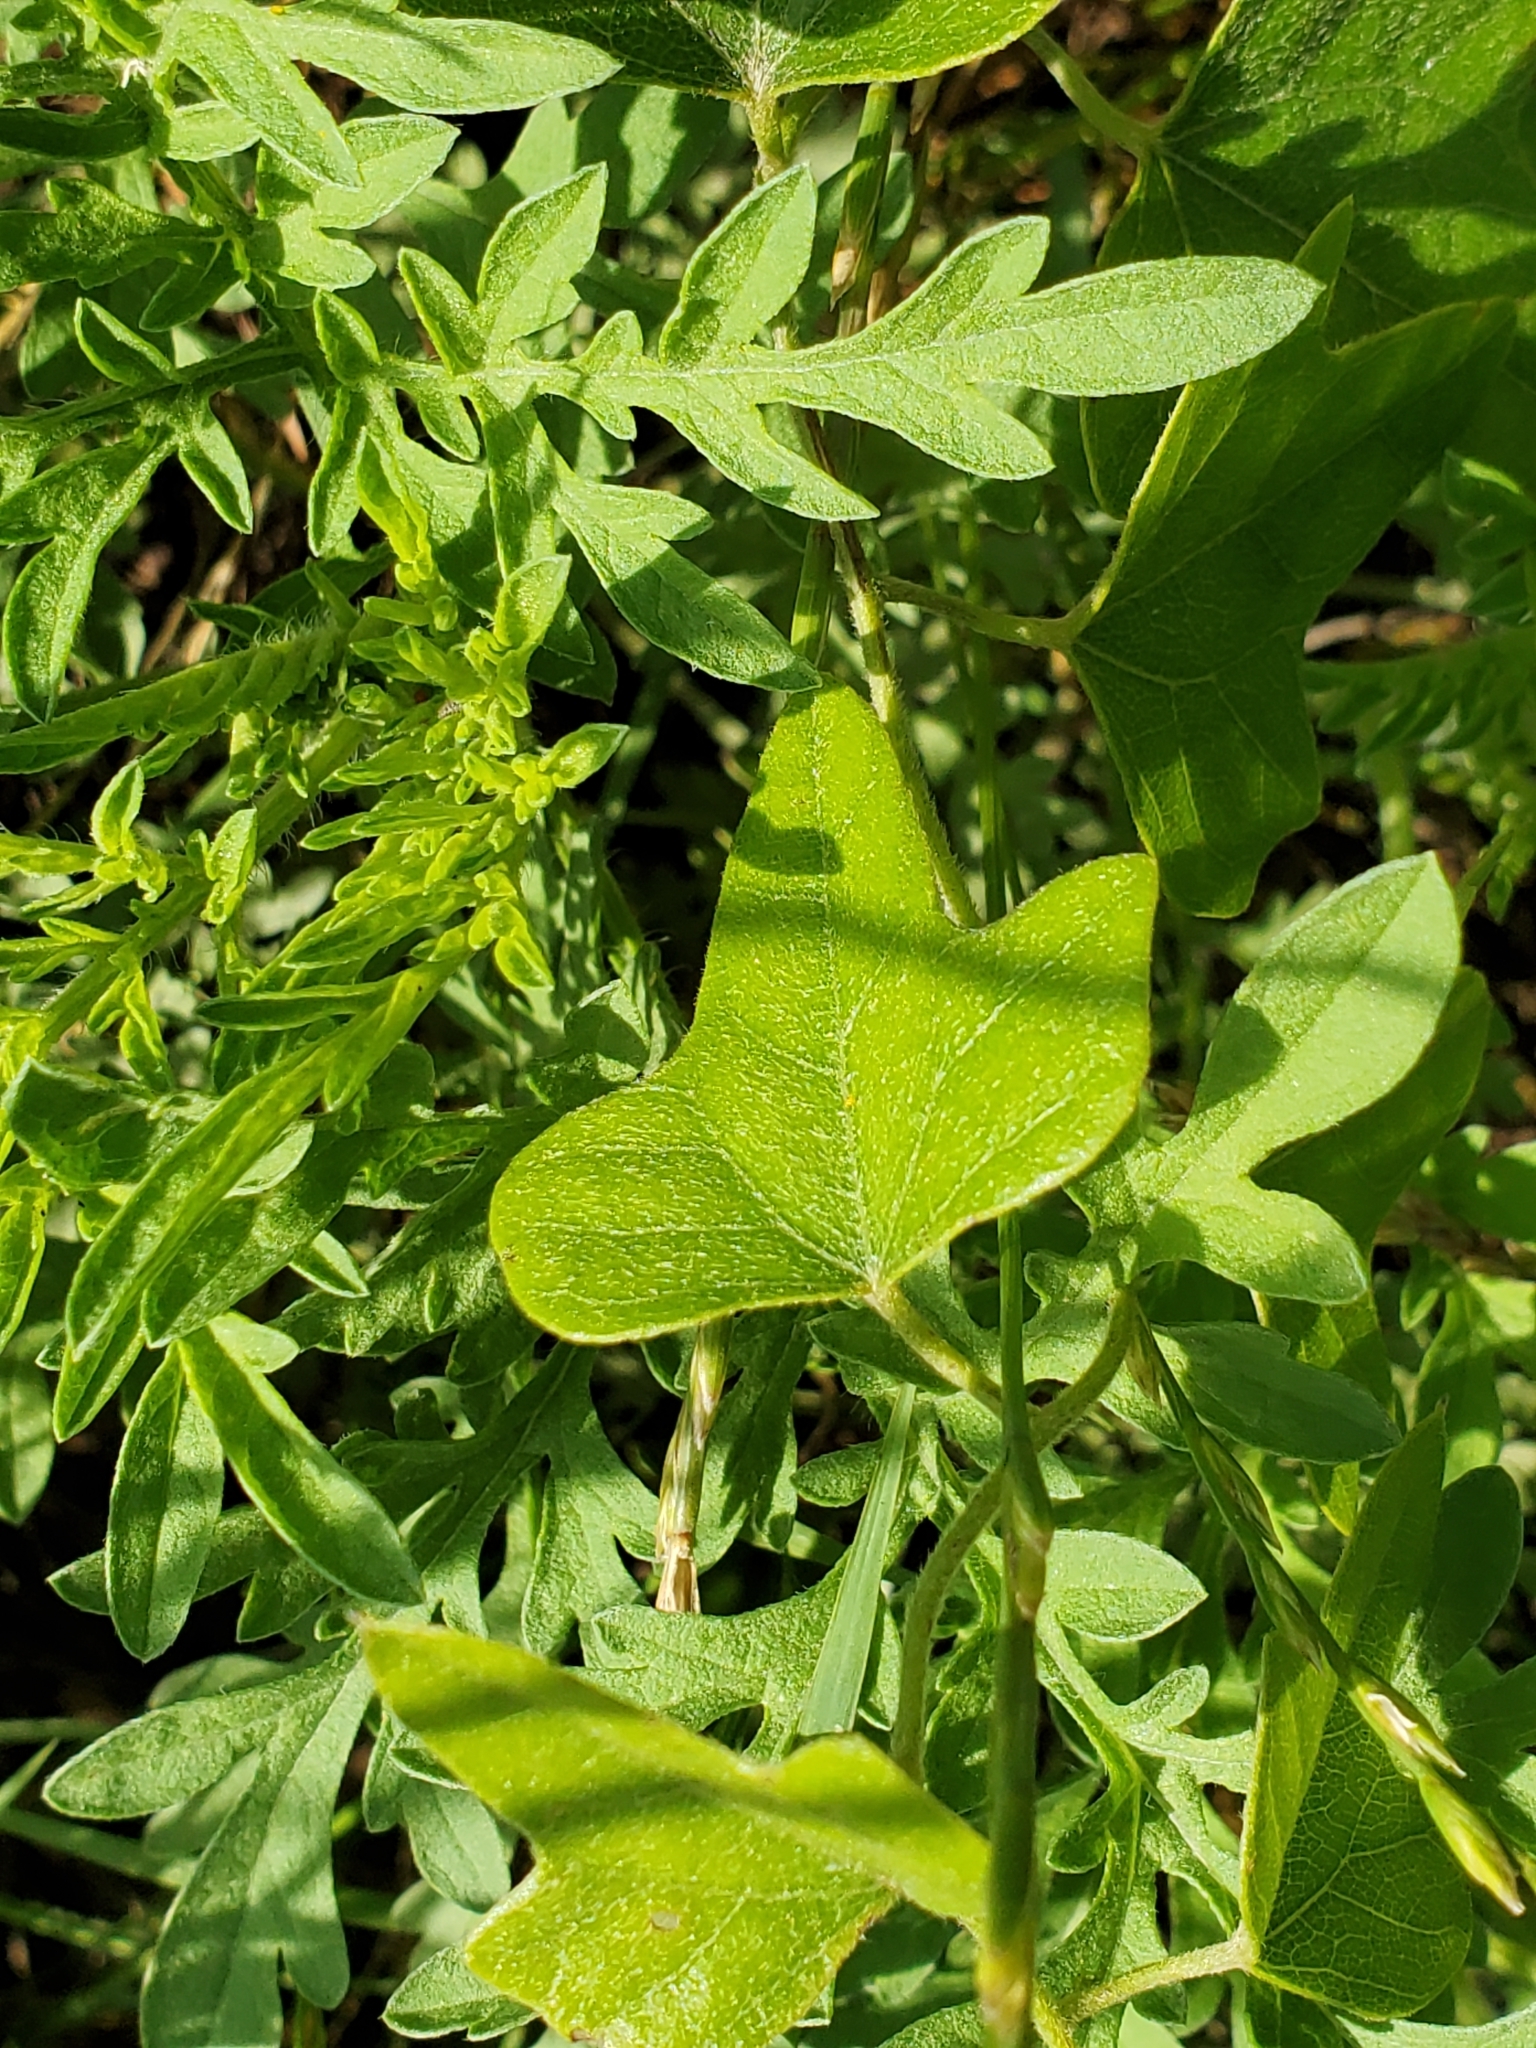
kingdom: Plantae
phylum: Tracheophyta
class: Magnoliopsida
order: Ranunculales
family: Menispermaceae
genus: Cocculus
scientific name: Cocculus carolinus
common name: Carolina moonseed
